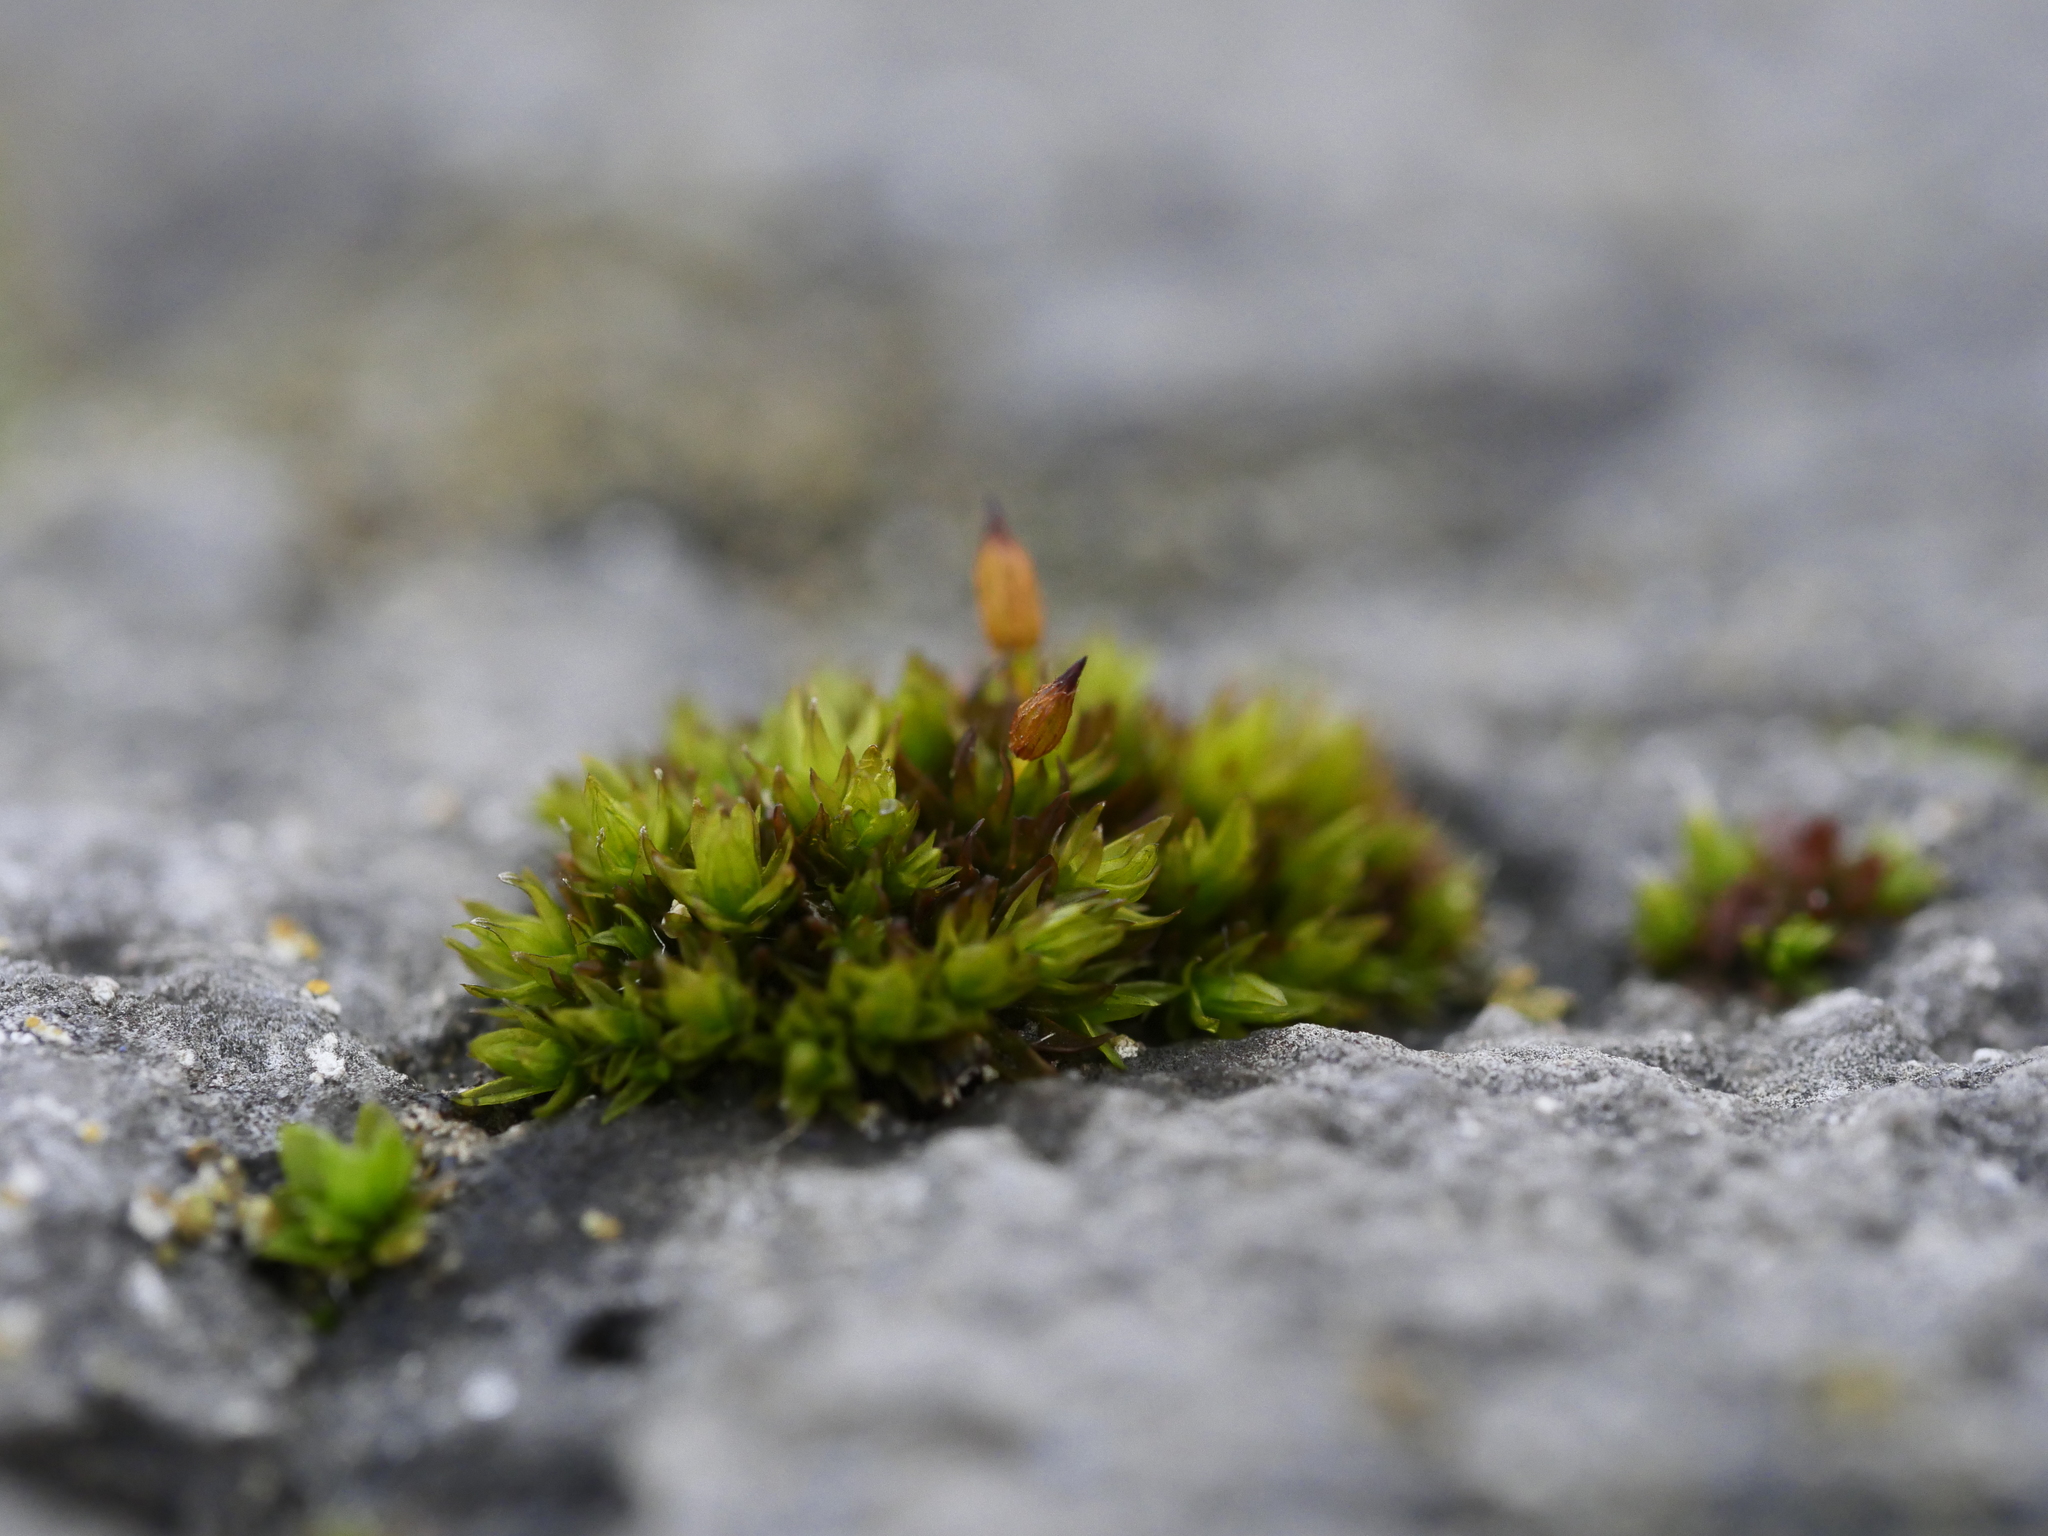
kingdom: Plantae
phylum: Bryophyta
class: Bryopsida
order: Orthotrichales
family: Orthotrichaceae
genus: Orthotrichum
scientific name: Orthotrichum anomalum
